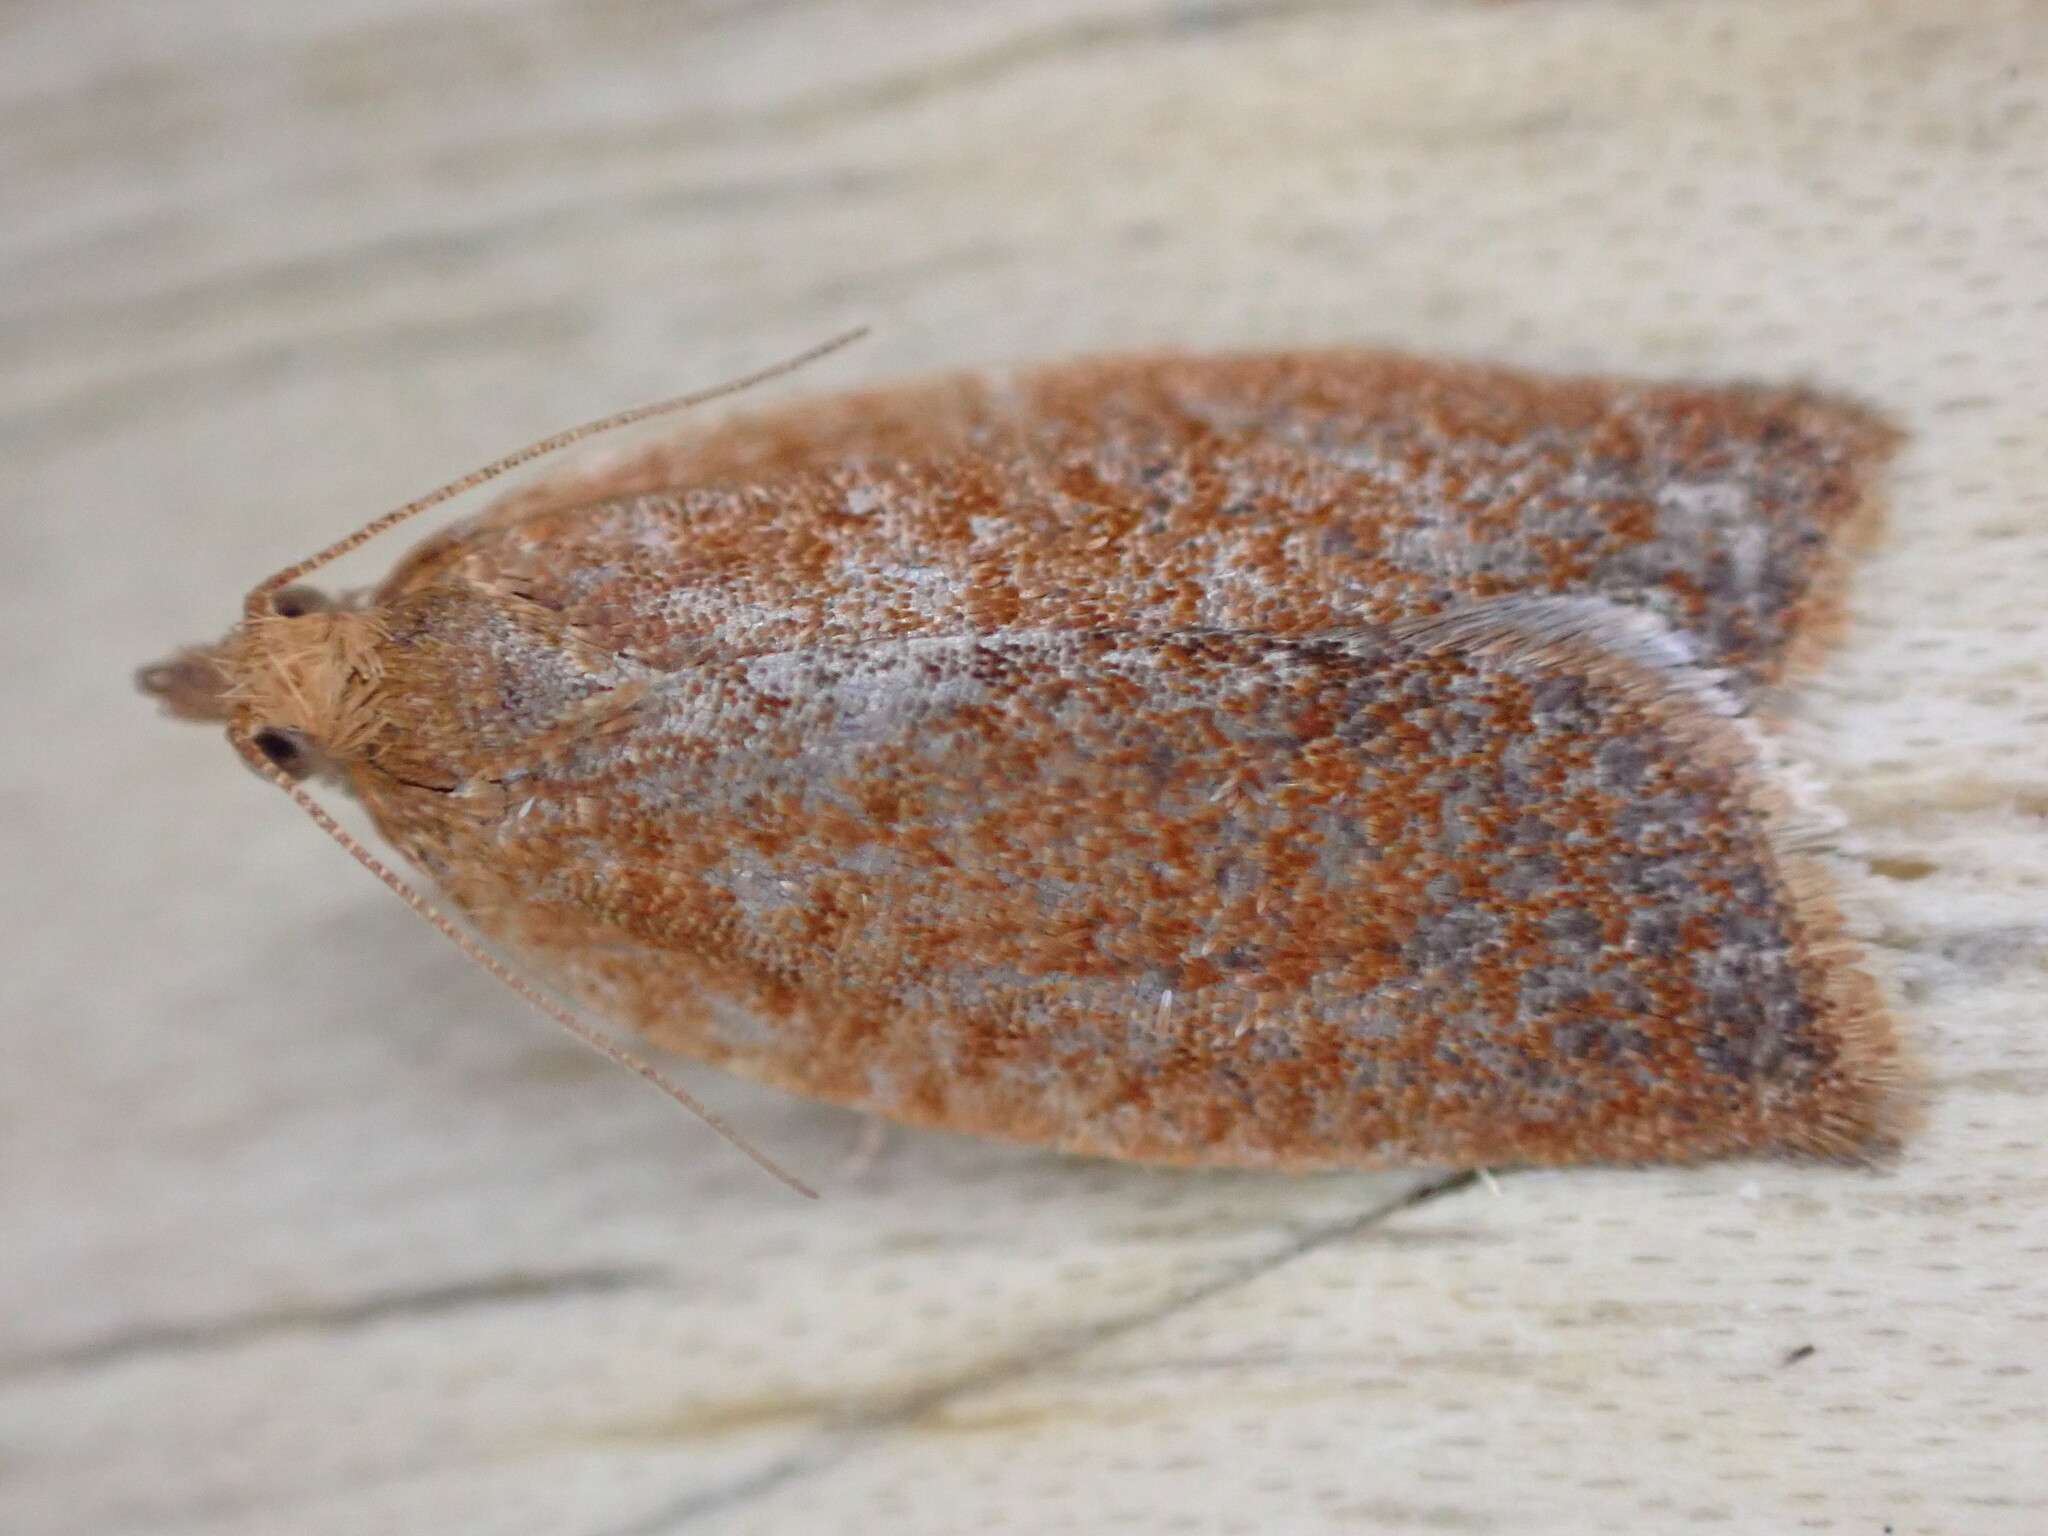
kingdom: Animalia
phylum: Arthropoda
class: Insecta
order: Lepidoptera
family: Tortricidae
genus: Clepsis
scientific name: Clepsis consimilana
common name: Privet tortrix
